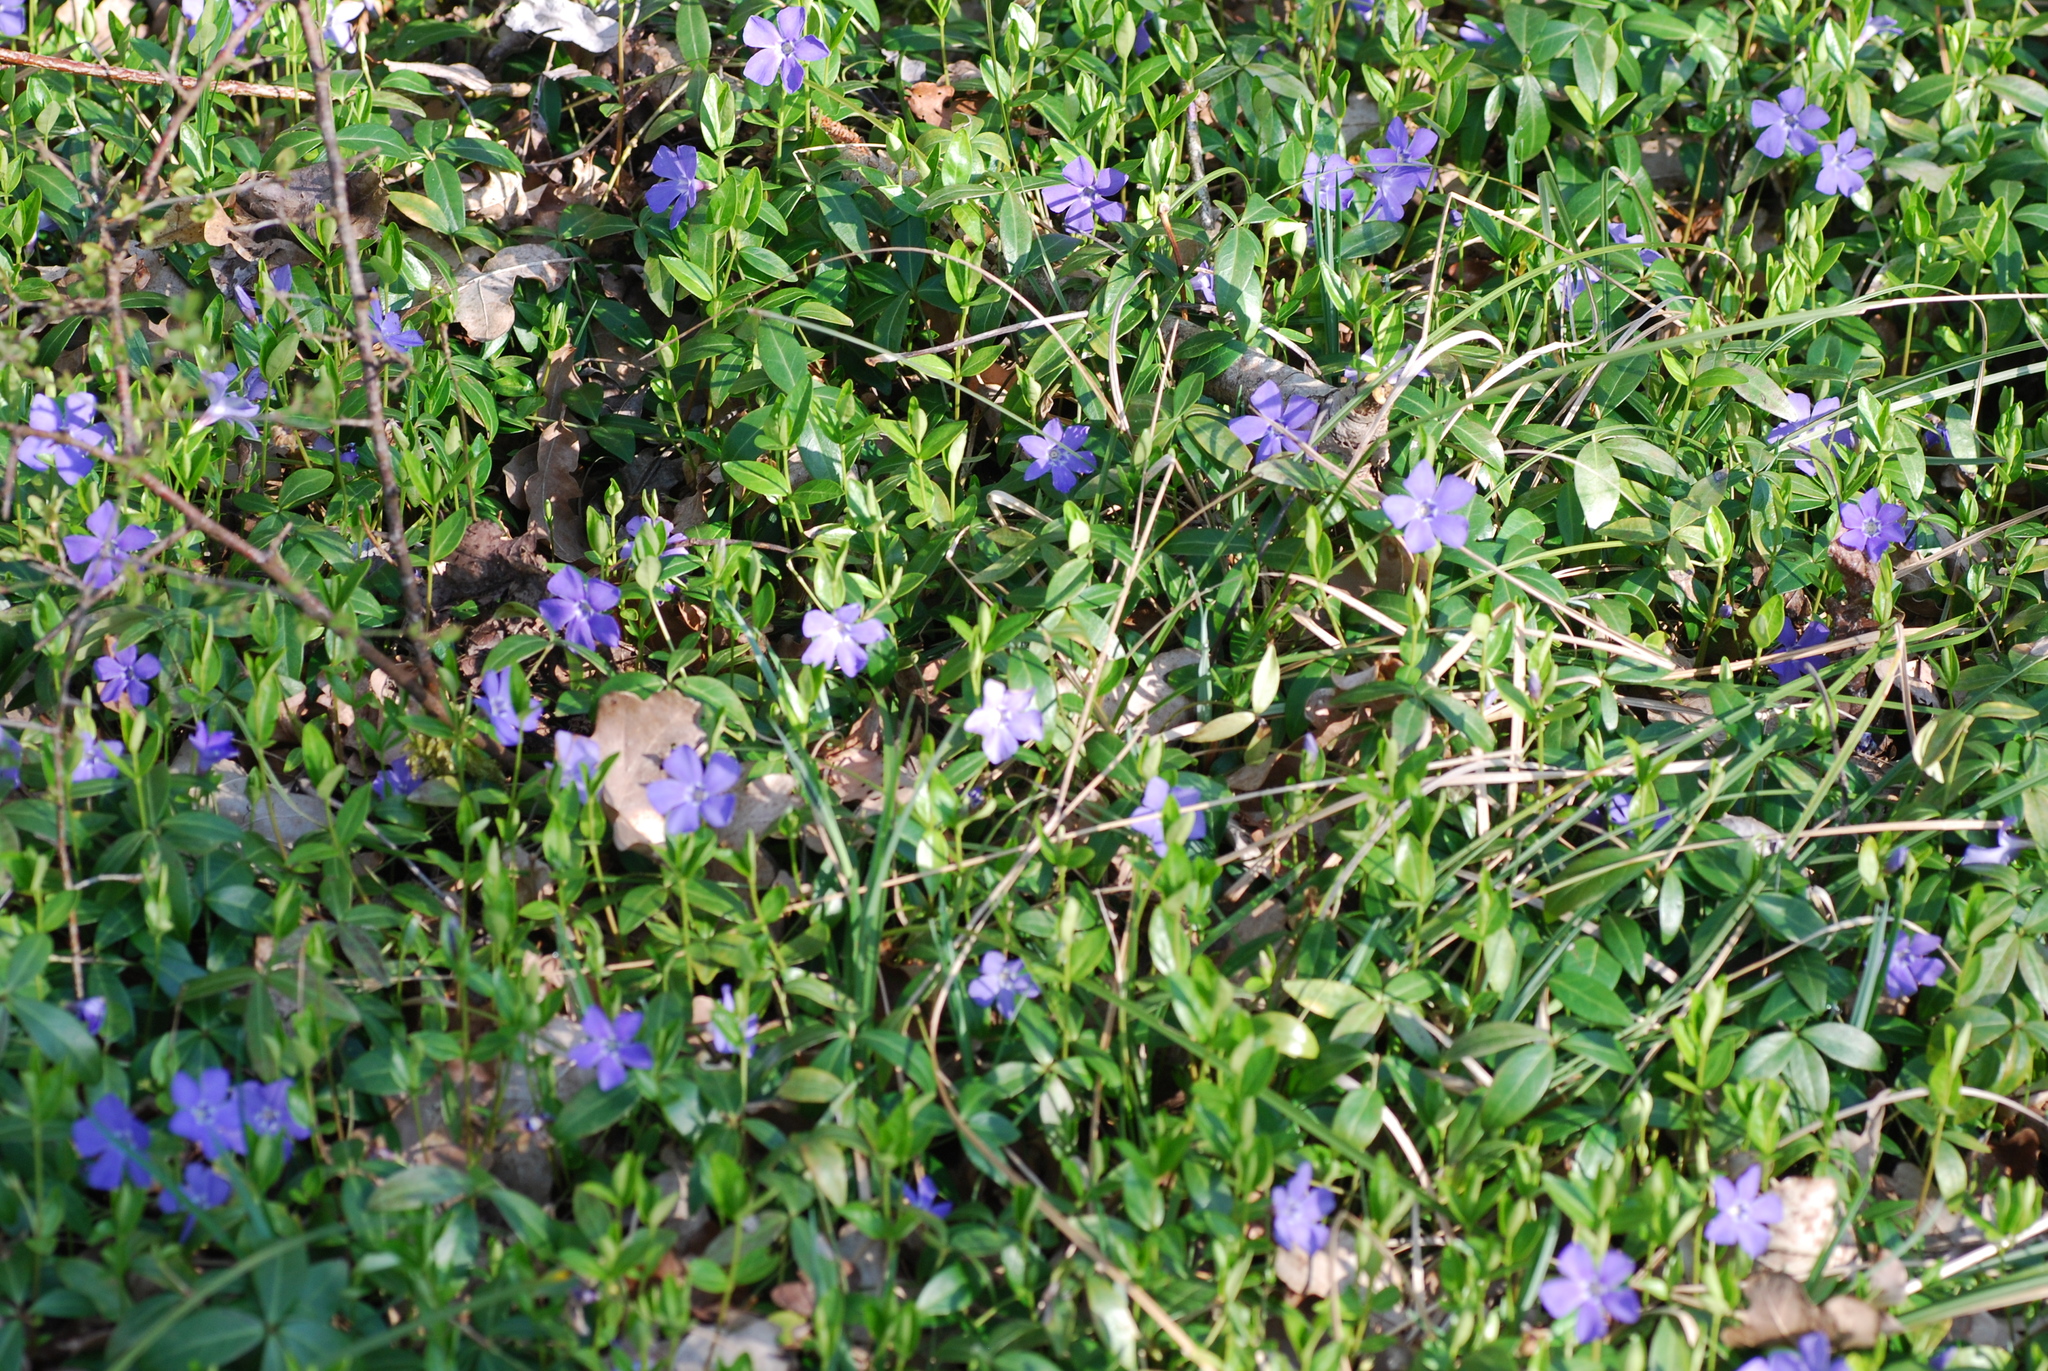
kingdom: Plantae
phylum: Tracheophyta
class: Magnoliopsida
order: Gentianales
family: Apocynaceae
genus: Vinca
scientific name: Vinca minor
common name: Lesser periwinkle
